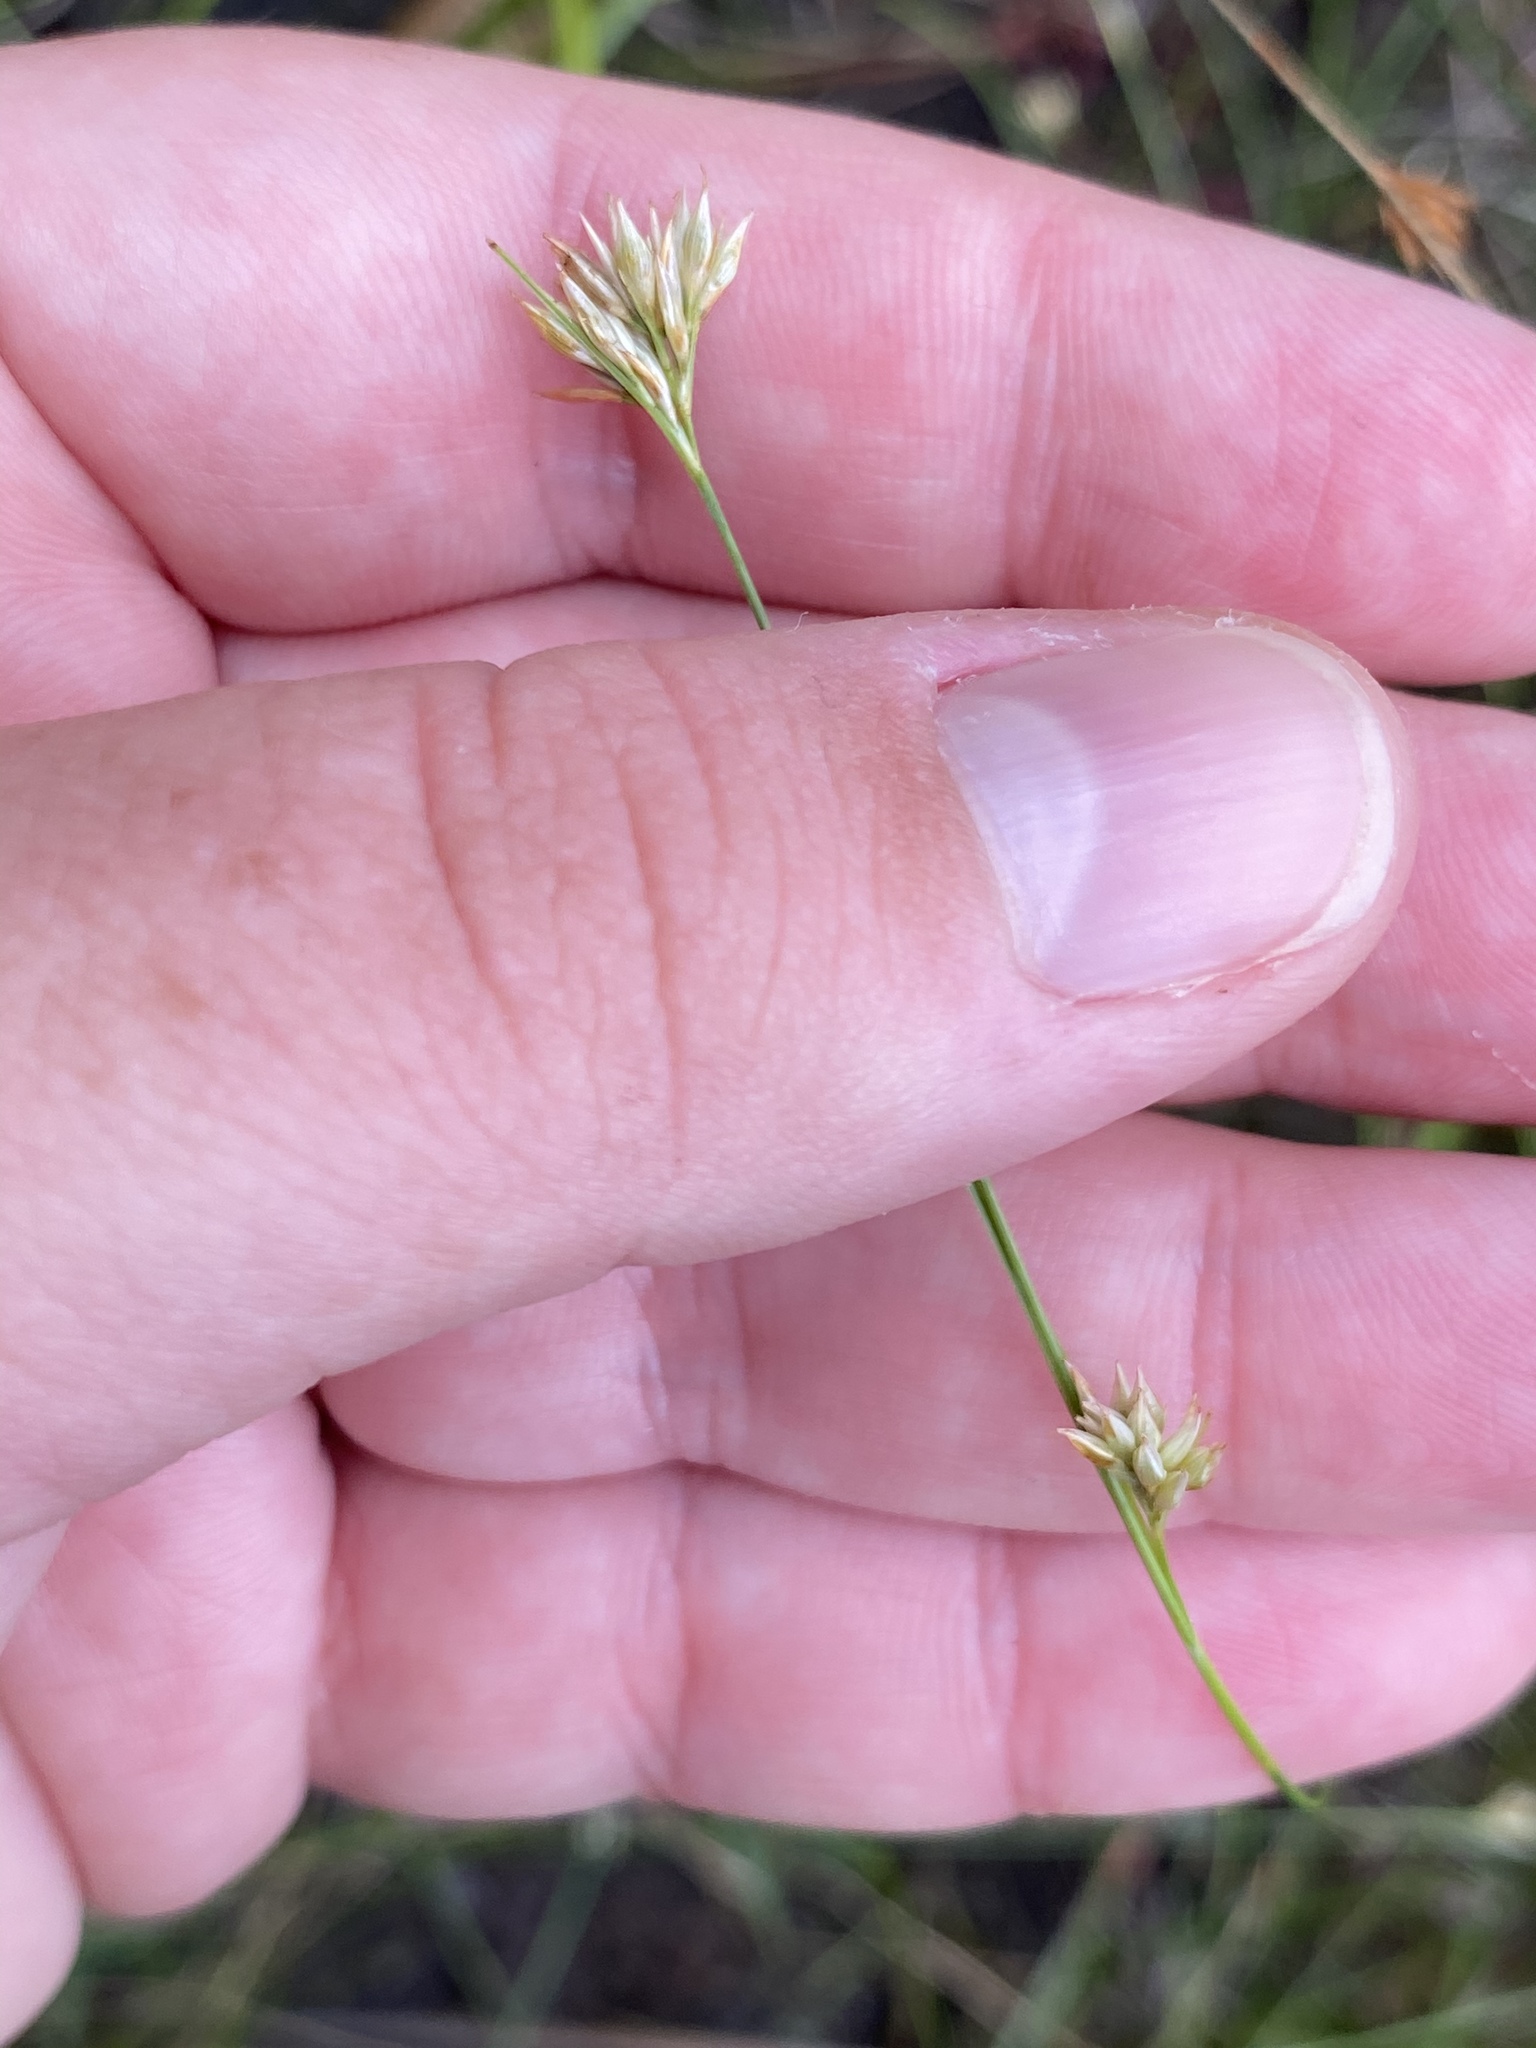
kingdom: Plantae
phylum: Tracheophyta
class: Liliopsida
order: Poales
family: Cyperaceae
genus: Rhynchospora
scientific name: Rhynchospora alba
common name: White beak-sedge
